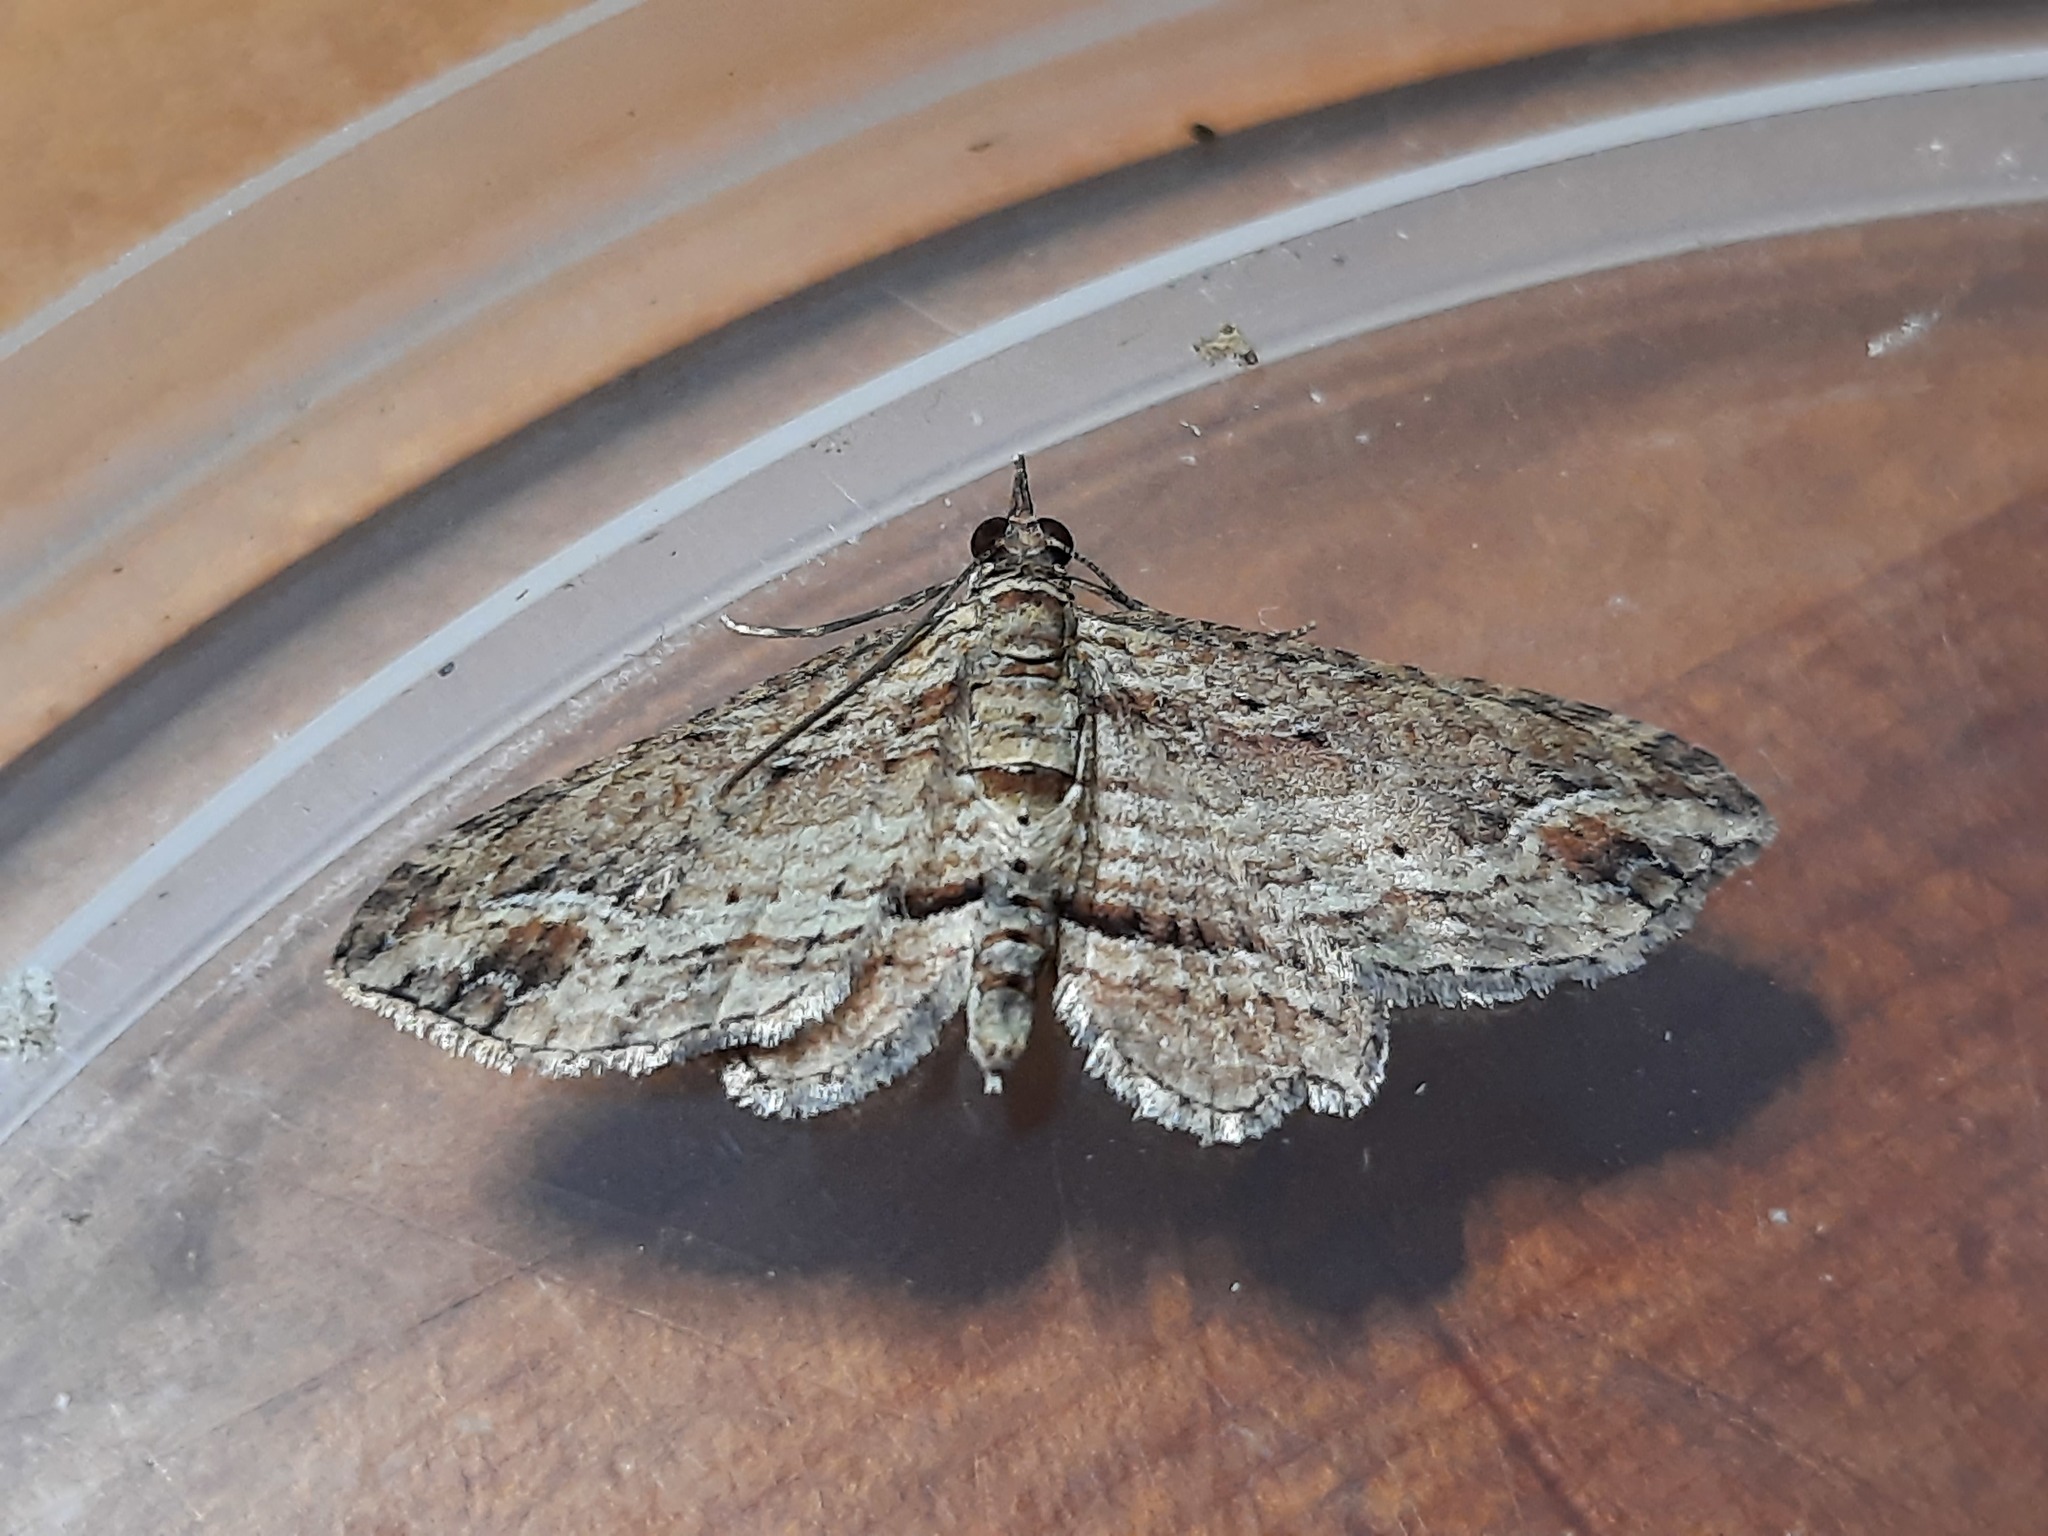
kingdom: Animalia
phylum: Arthropoda
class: Insecta
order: Lepidoptera
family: Geometridae
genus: Chloroclystis
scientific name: Chloroclystis filata
